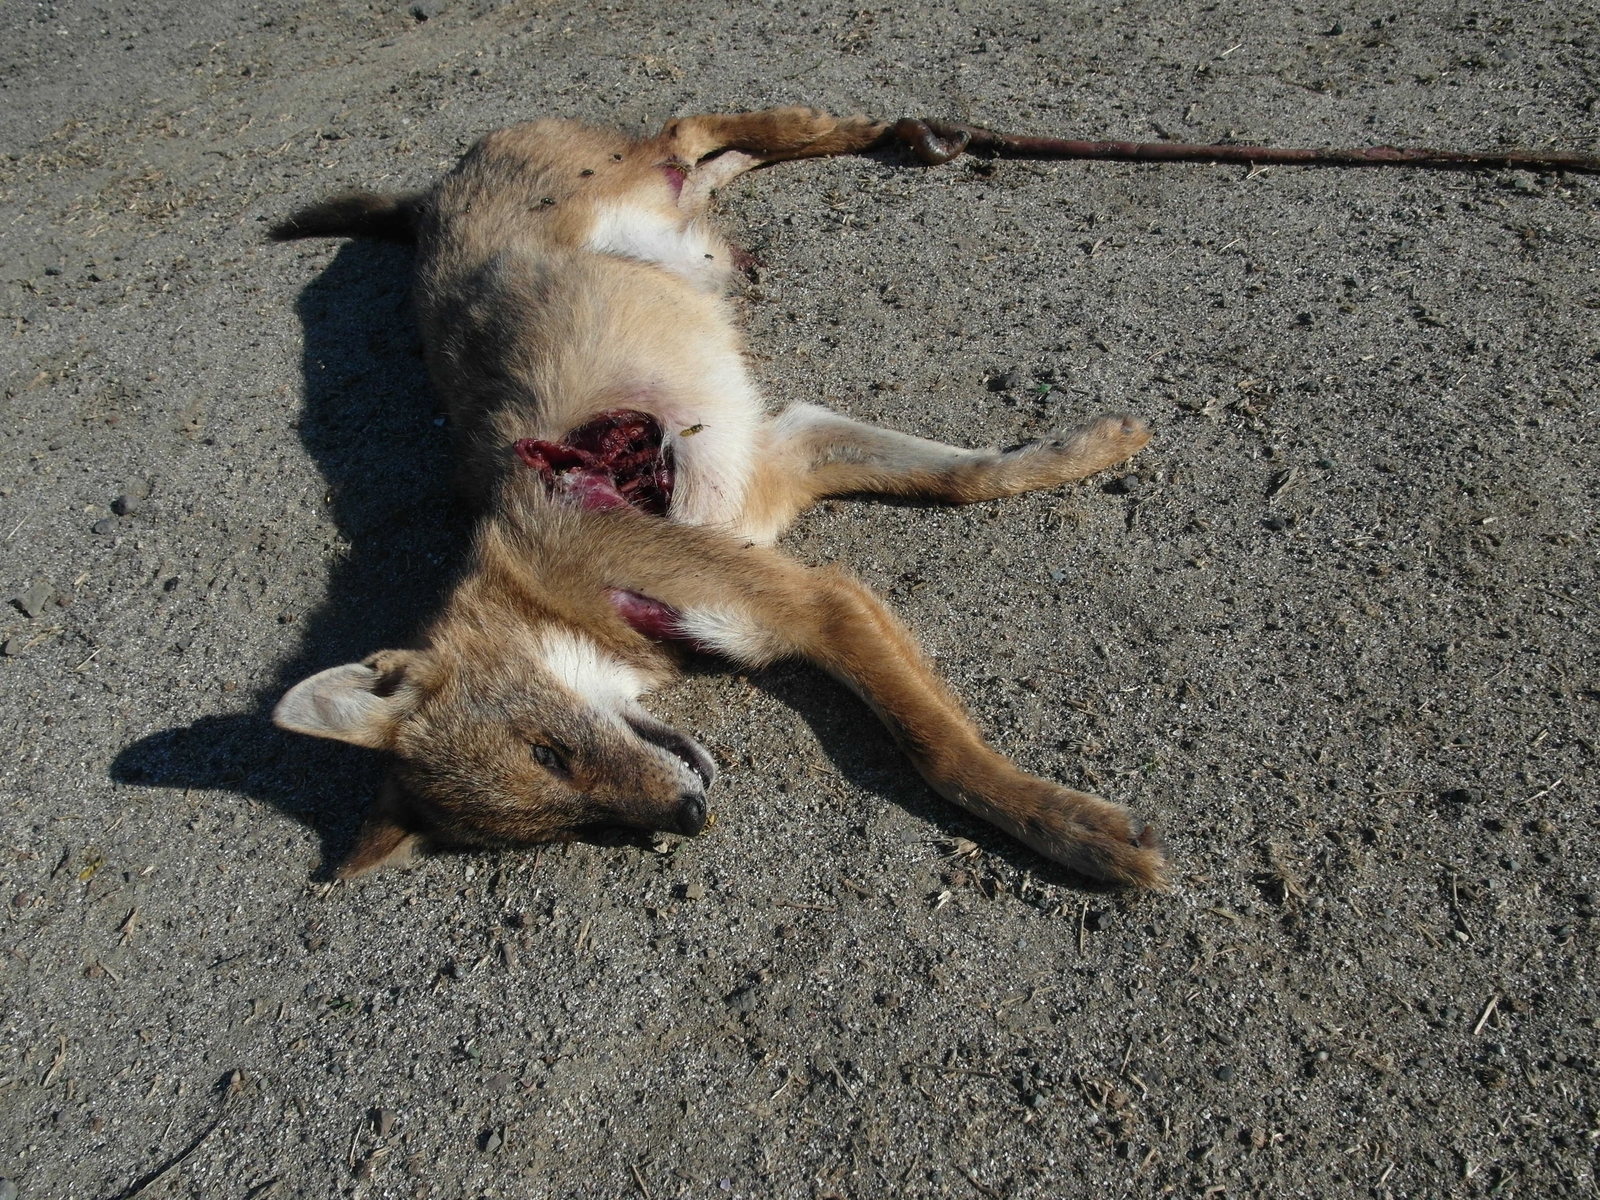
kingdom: Animalia
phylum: Chordata
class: Mammalia
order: Carnivora
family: Canidae
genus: Canis
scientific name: Canis aureus
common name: Golden jackal
